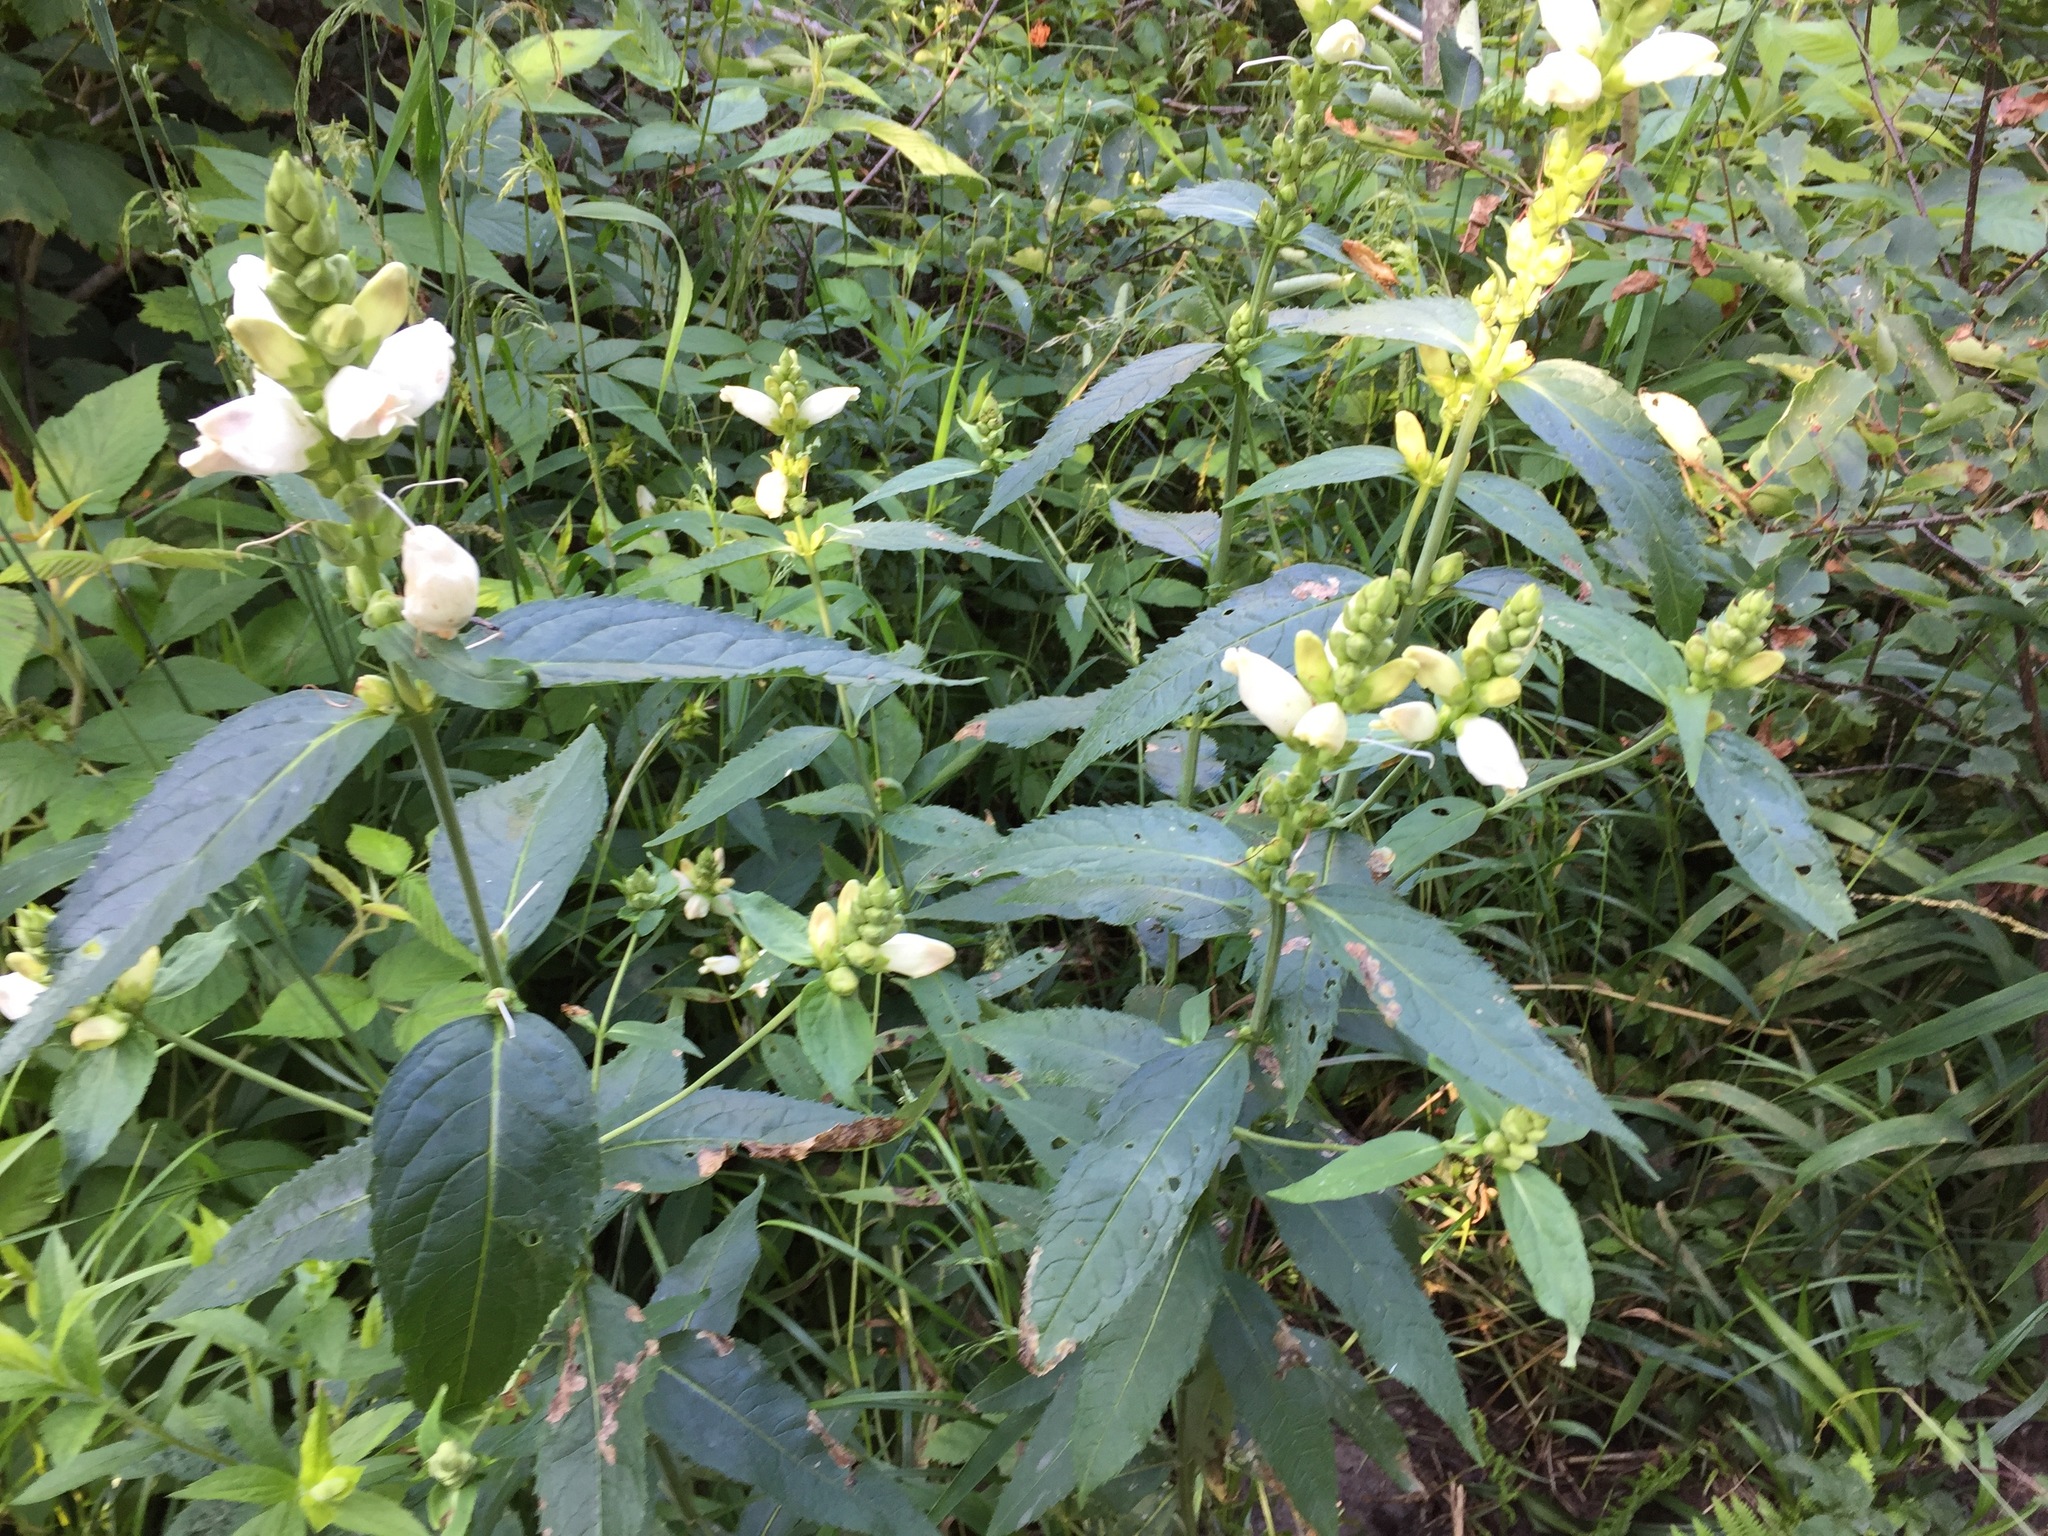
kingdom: Plantae
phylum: Tracheophyta
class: Magnoliopsida
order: Lamiales
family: Plantaginaceae
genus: Chelone
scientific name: Chelone glabra
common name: Snakehead
